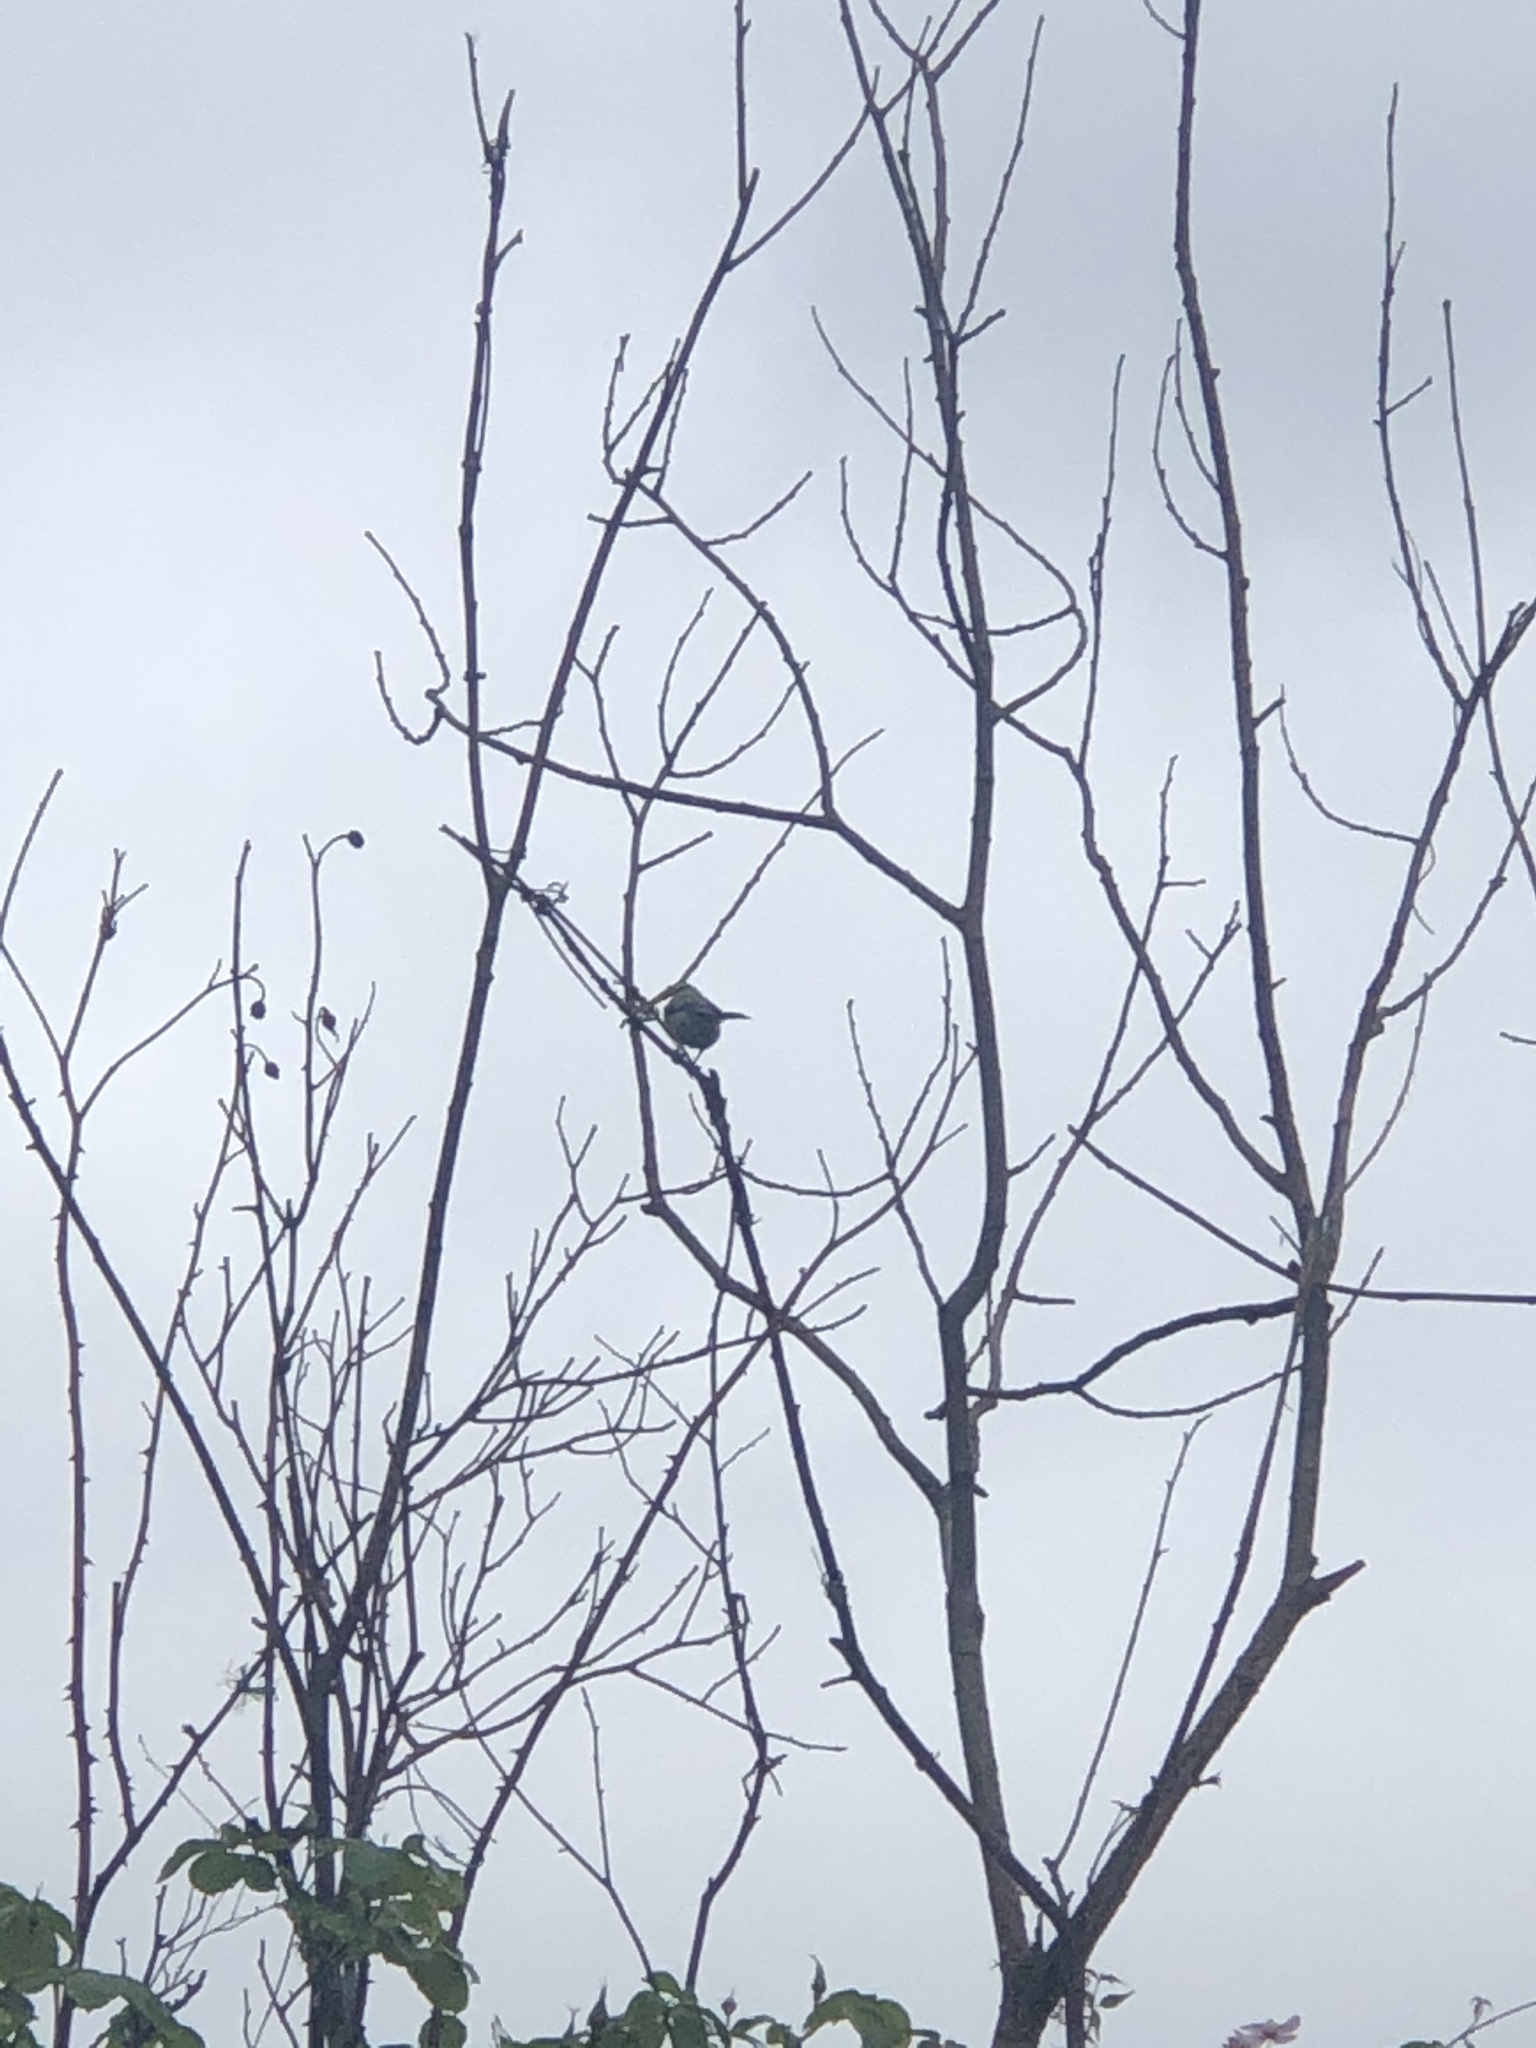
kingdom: Animalia
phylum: Chordata
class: Aves
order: Passeriformes
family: Paridae
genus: Cyanistes
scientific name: Cyanistes caeruleus
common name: Eurasian blue tit
